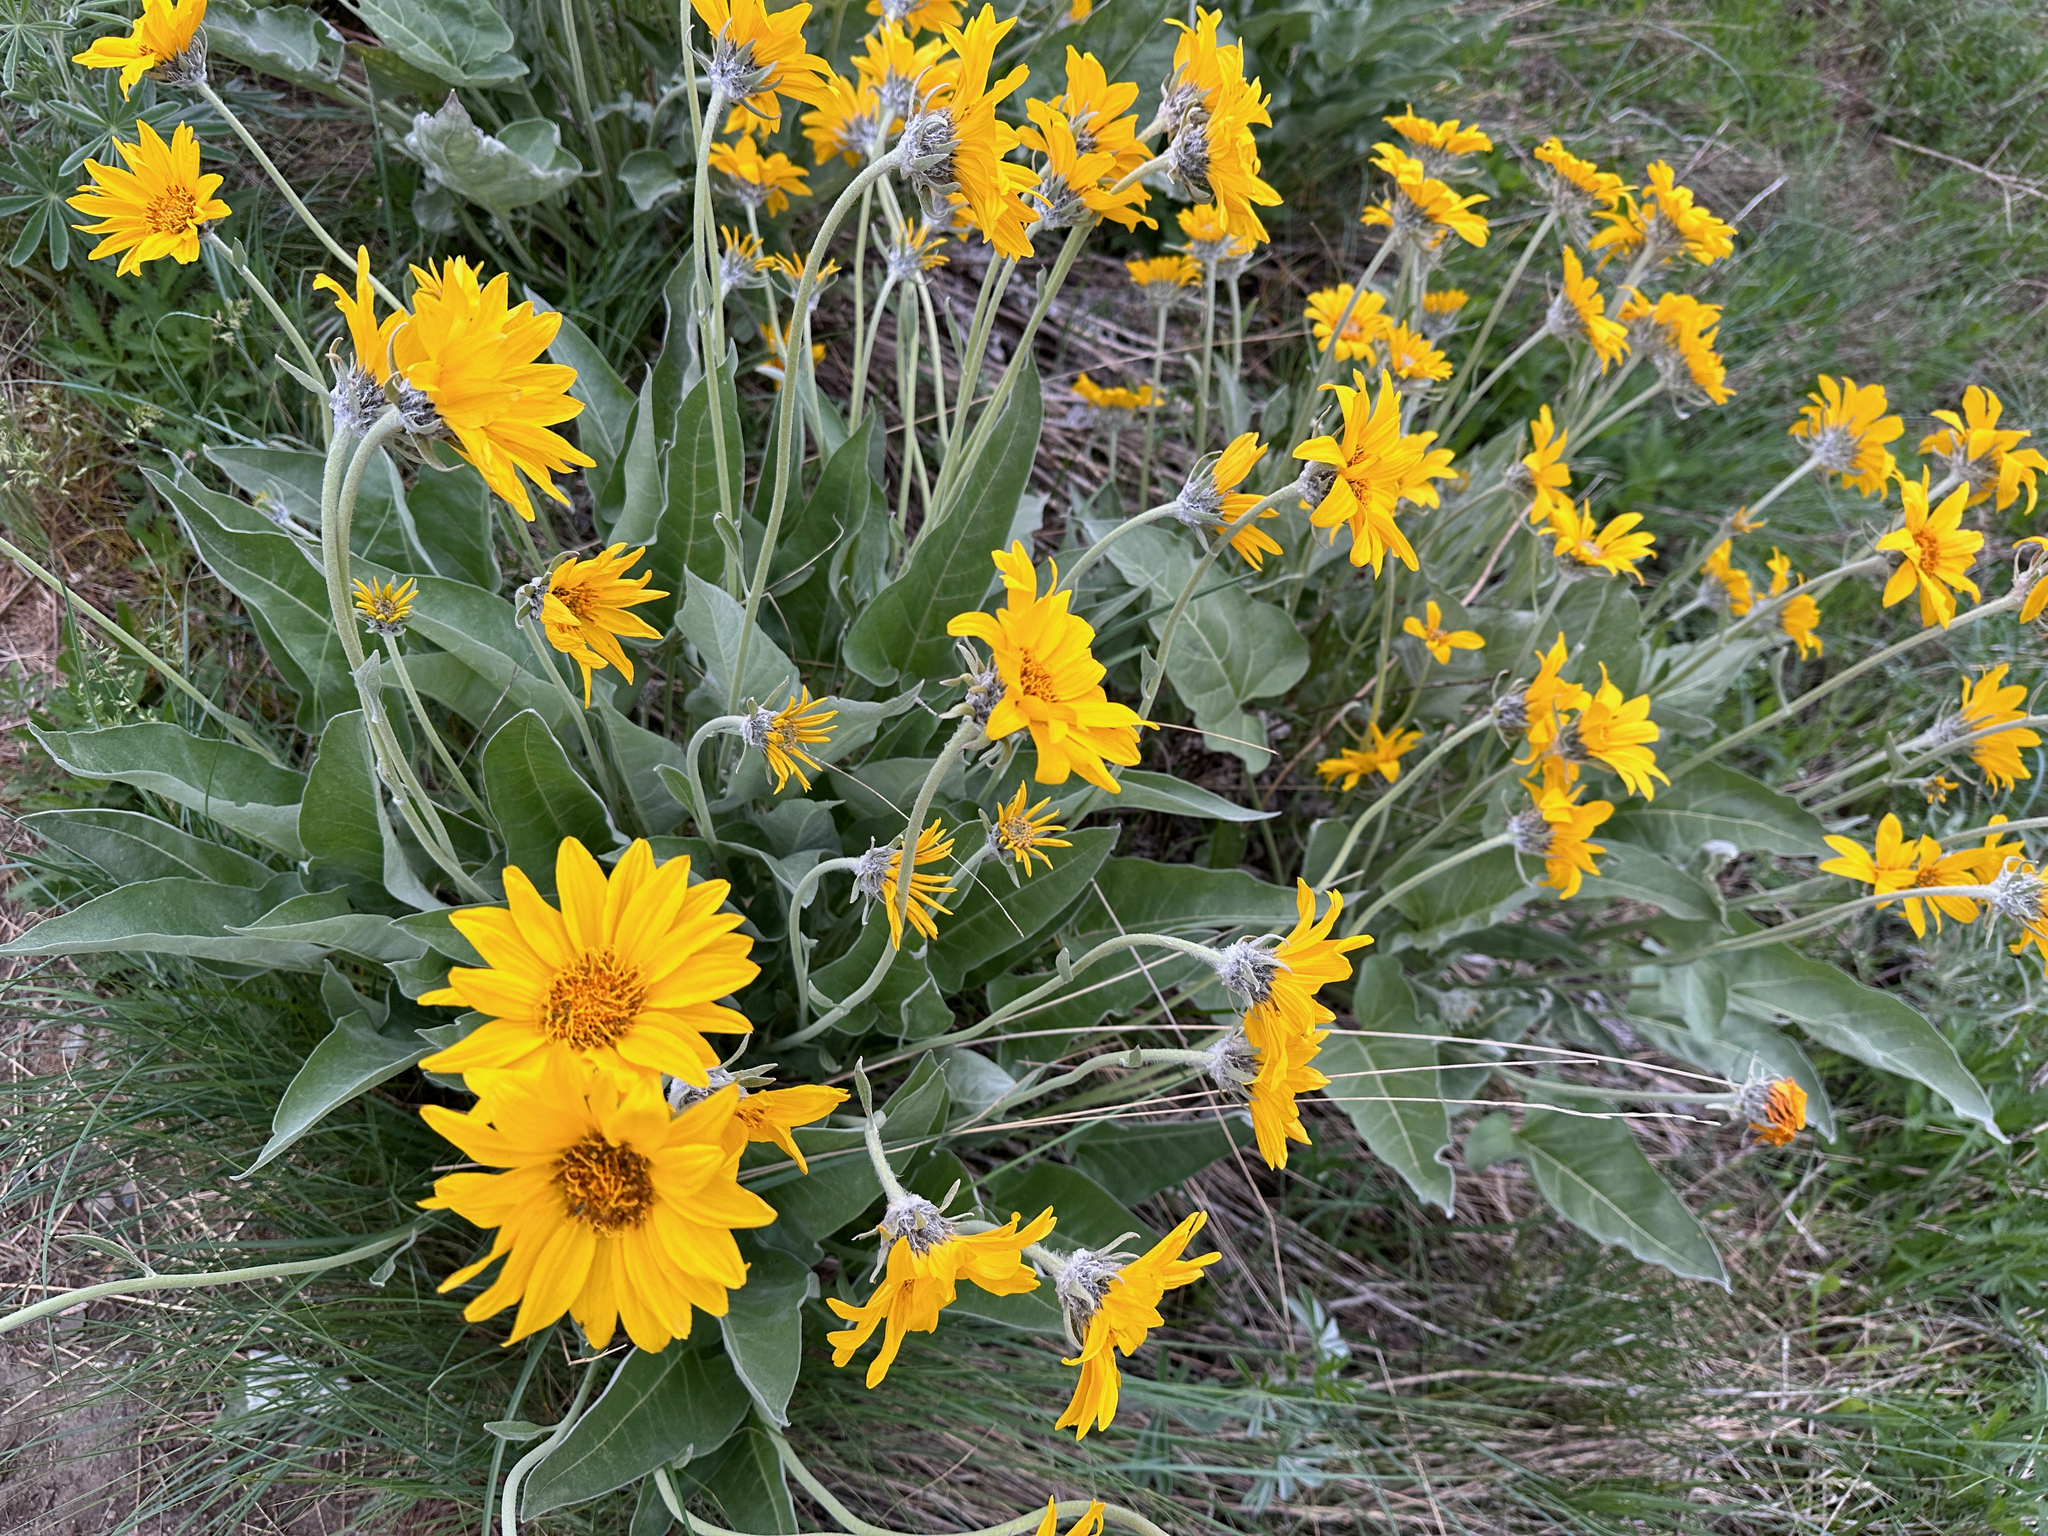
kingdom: Plantae
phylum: Tracheophyta
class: Magnoliopsida
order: Asterales
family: Asteraceae
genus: Wyethia
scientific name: Wyethia sagittata
